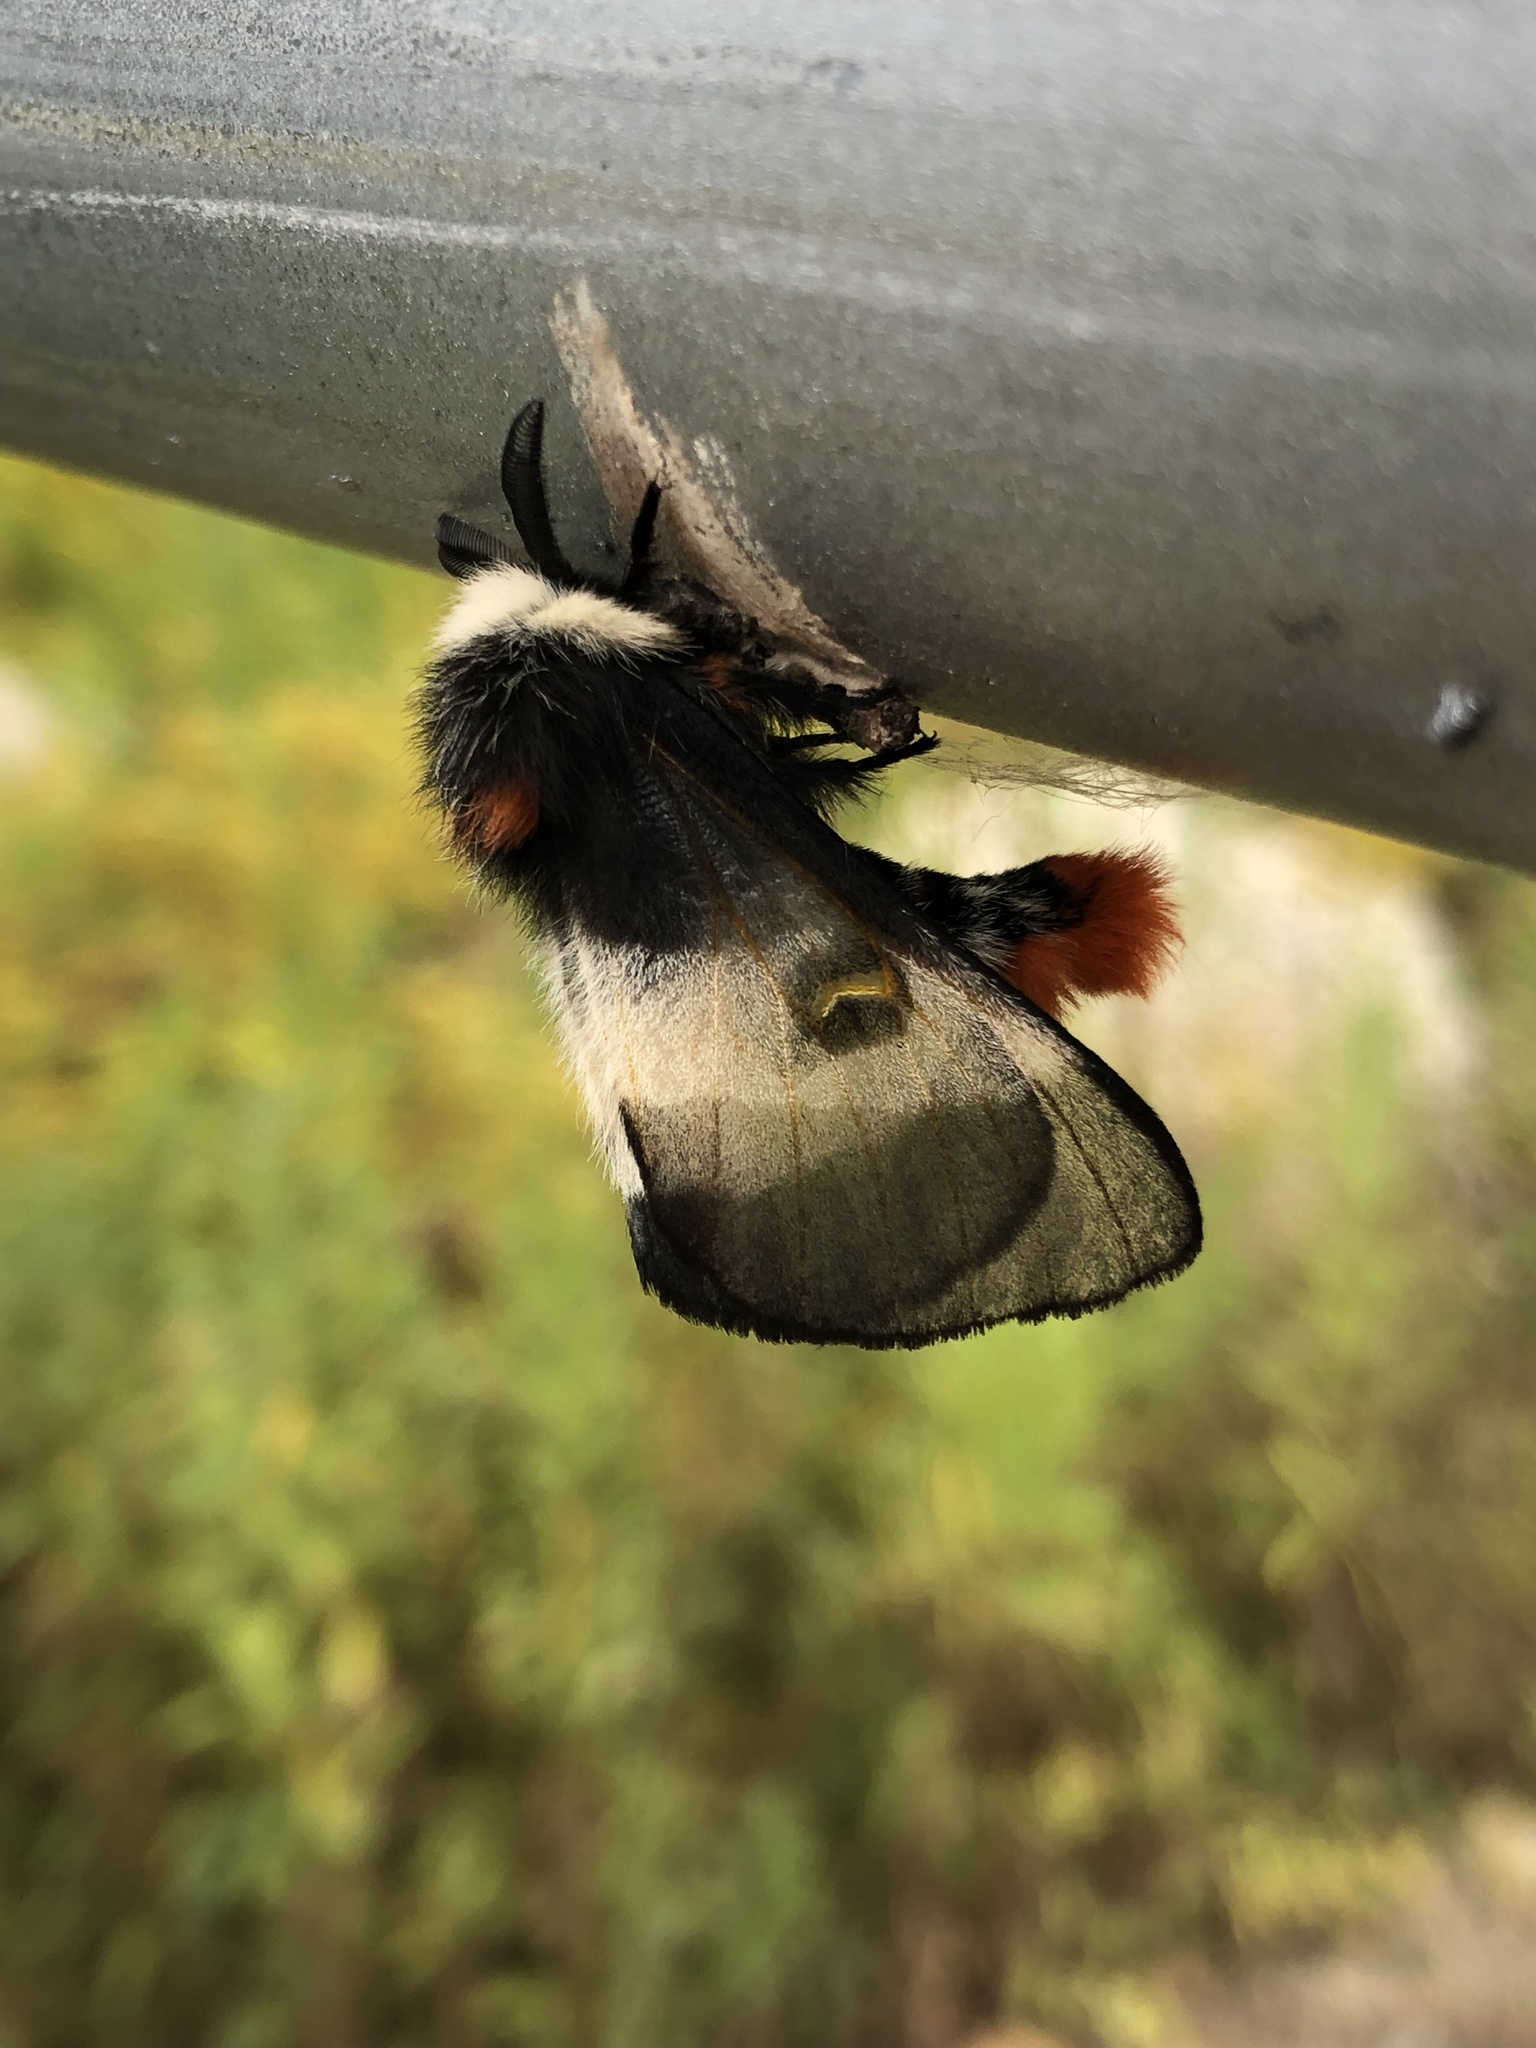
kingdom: Animalia
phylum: Arthropoda
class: Insecta
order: Lepidoptera
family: Saturniidae
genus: Hemileuca
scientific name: Hemileuca lucina
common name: New england buckmoth
